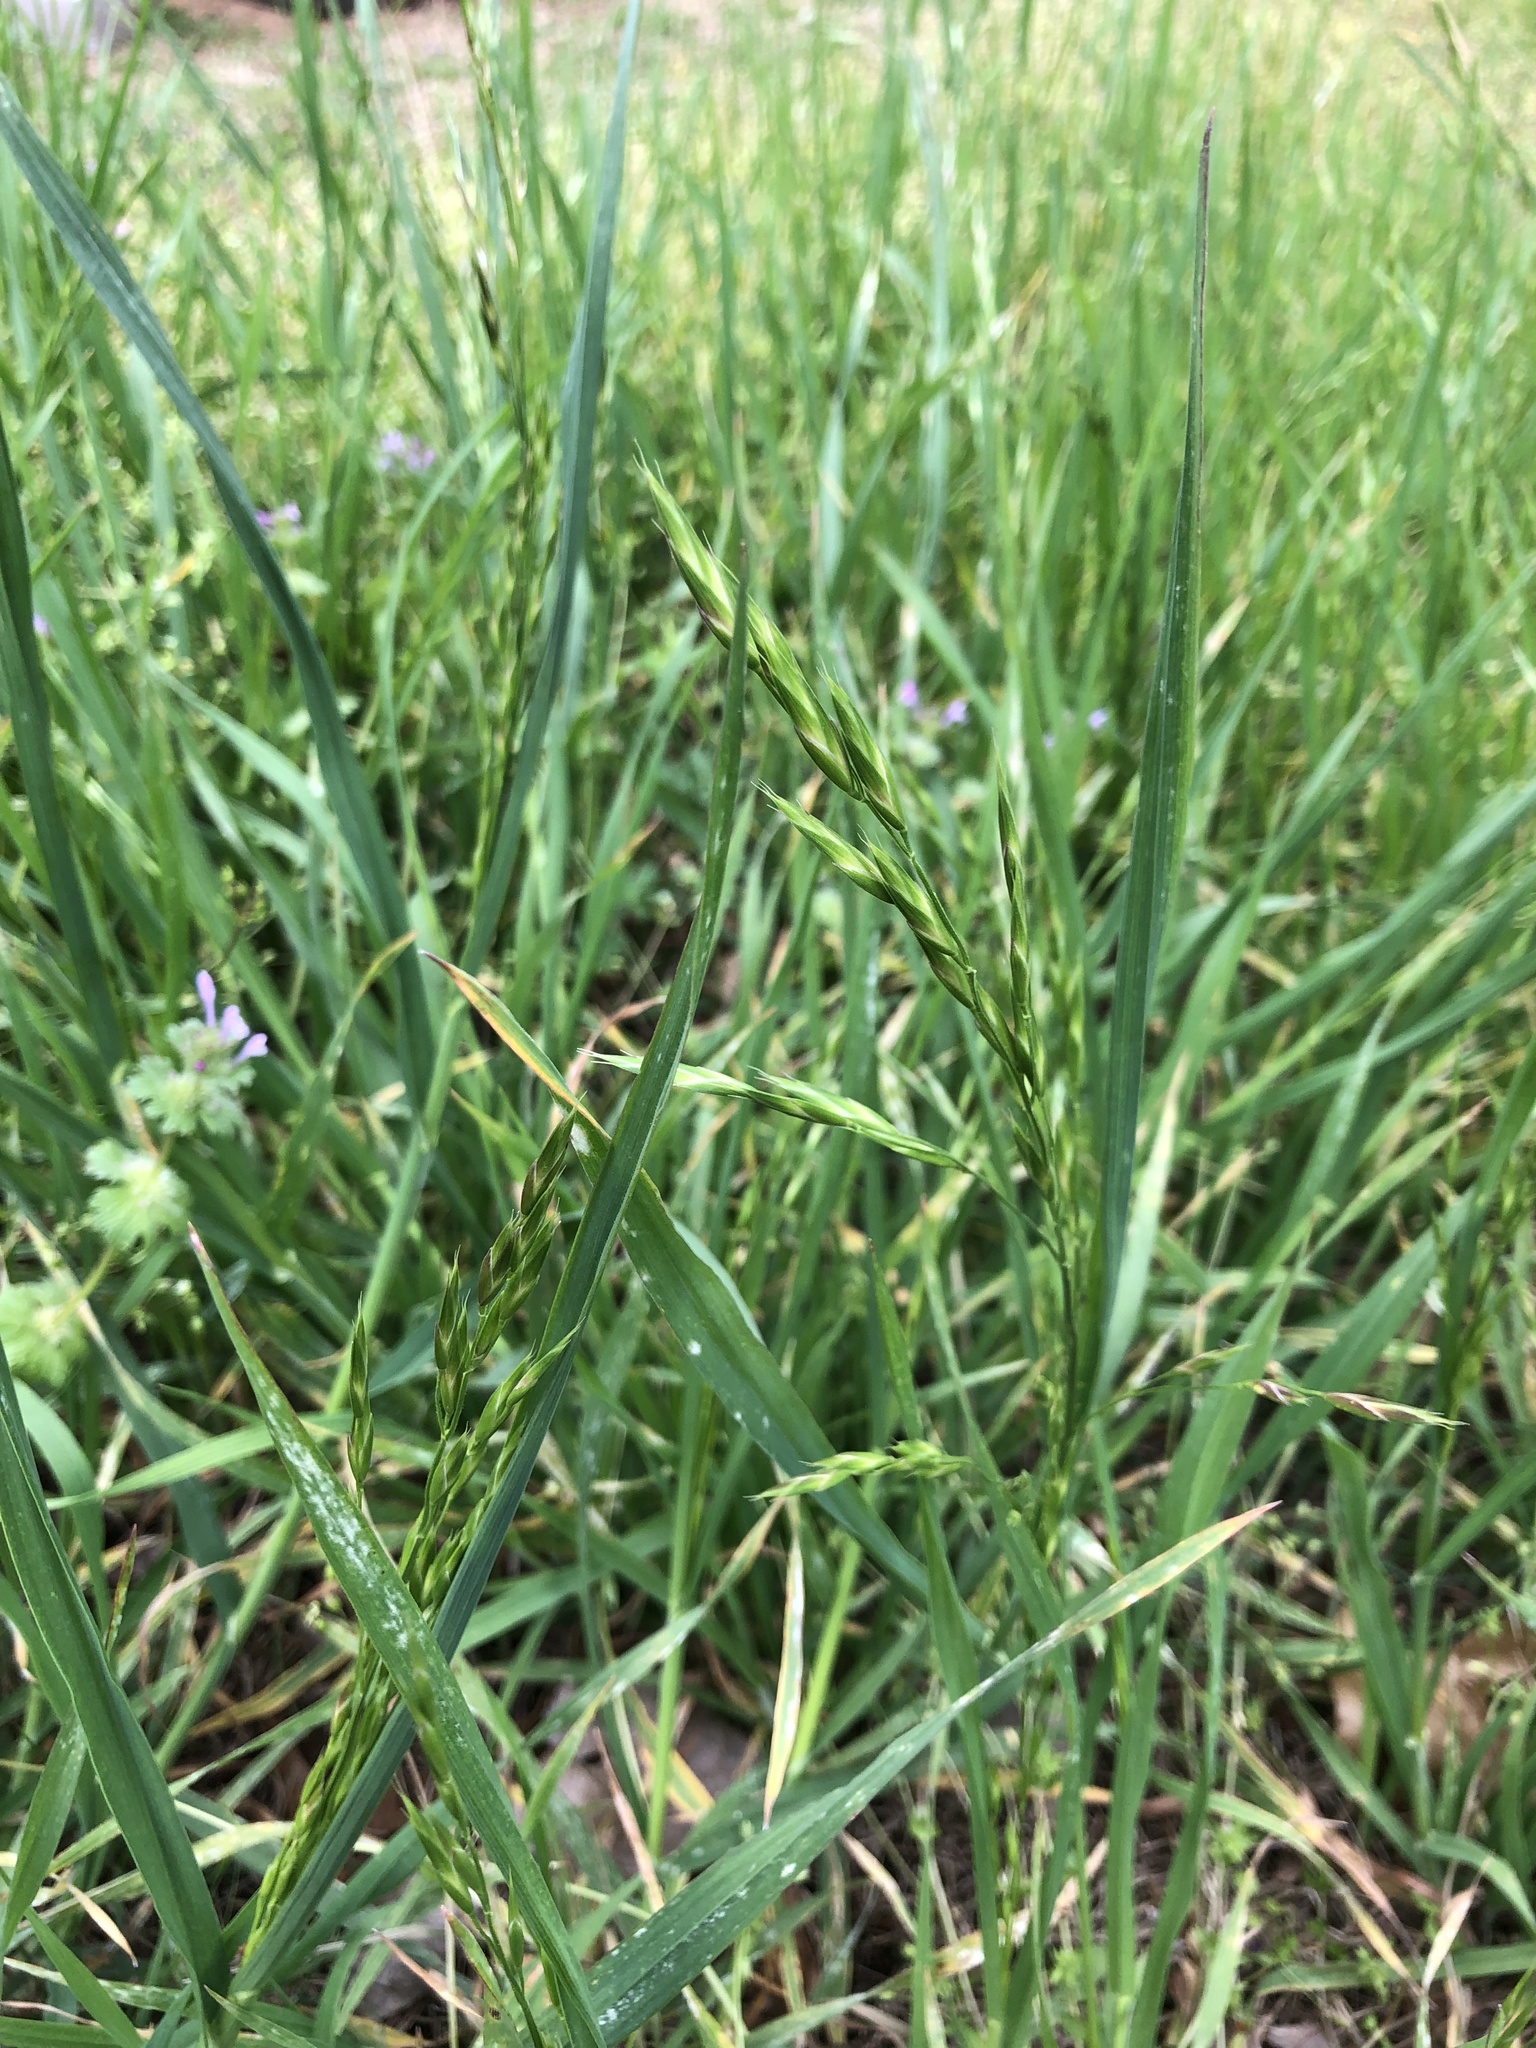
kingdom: Plantae
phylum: Tracheophyta
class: Liliopsida
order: Poales
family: Poaceae
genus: Bromus
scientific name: Bromus catharticus
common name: Rescuegrass
